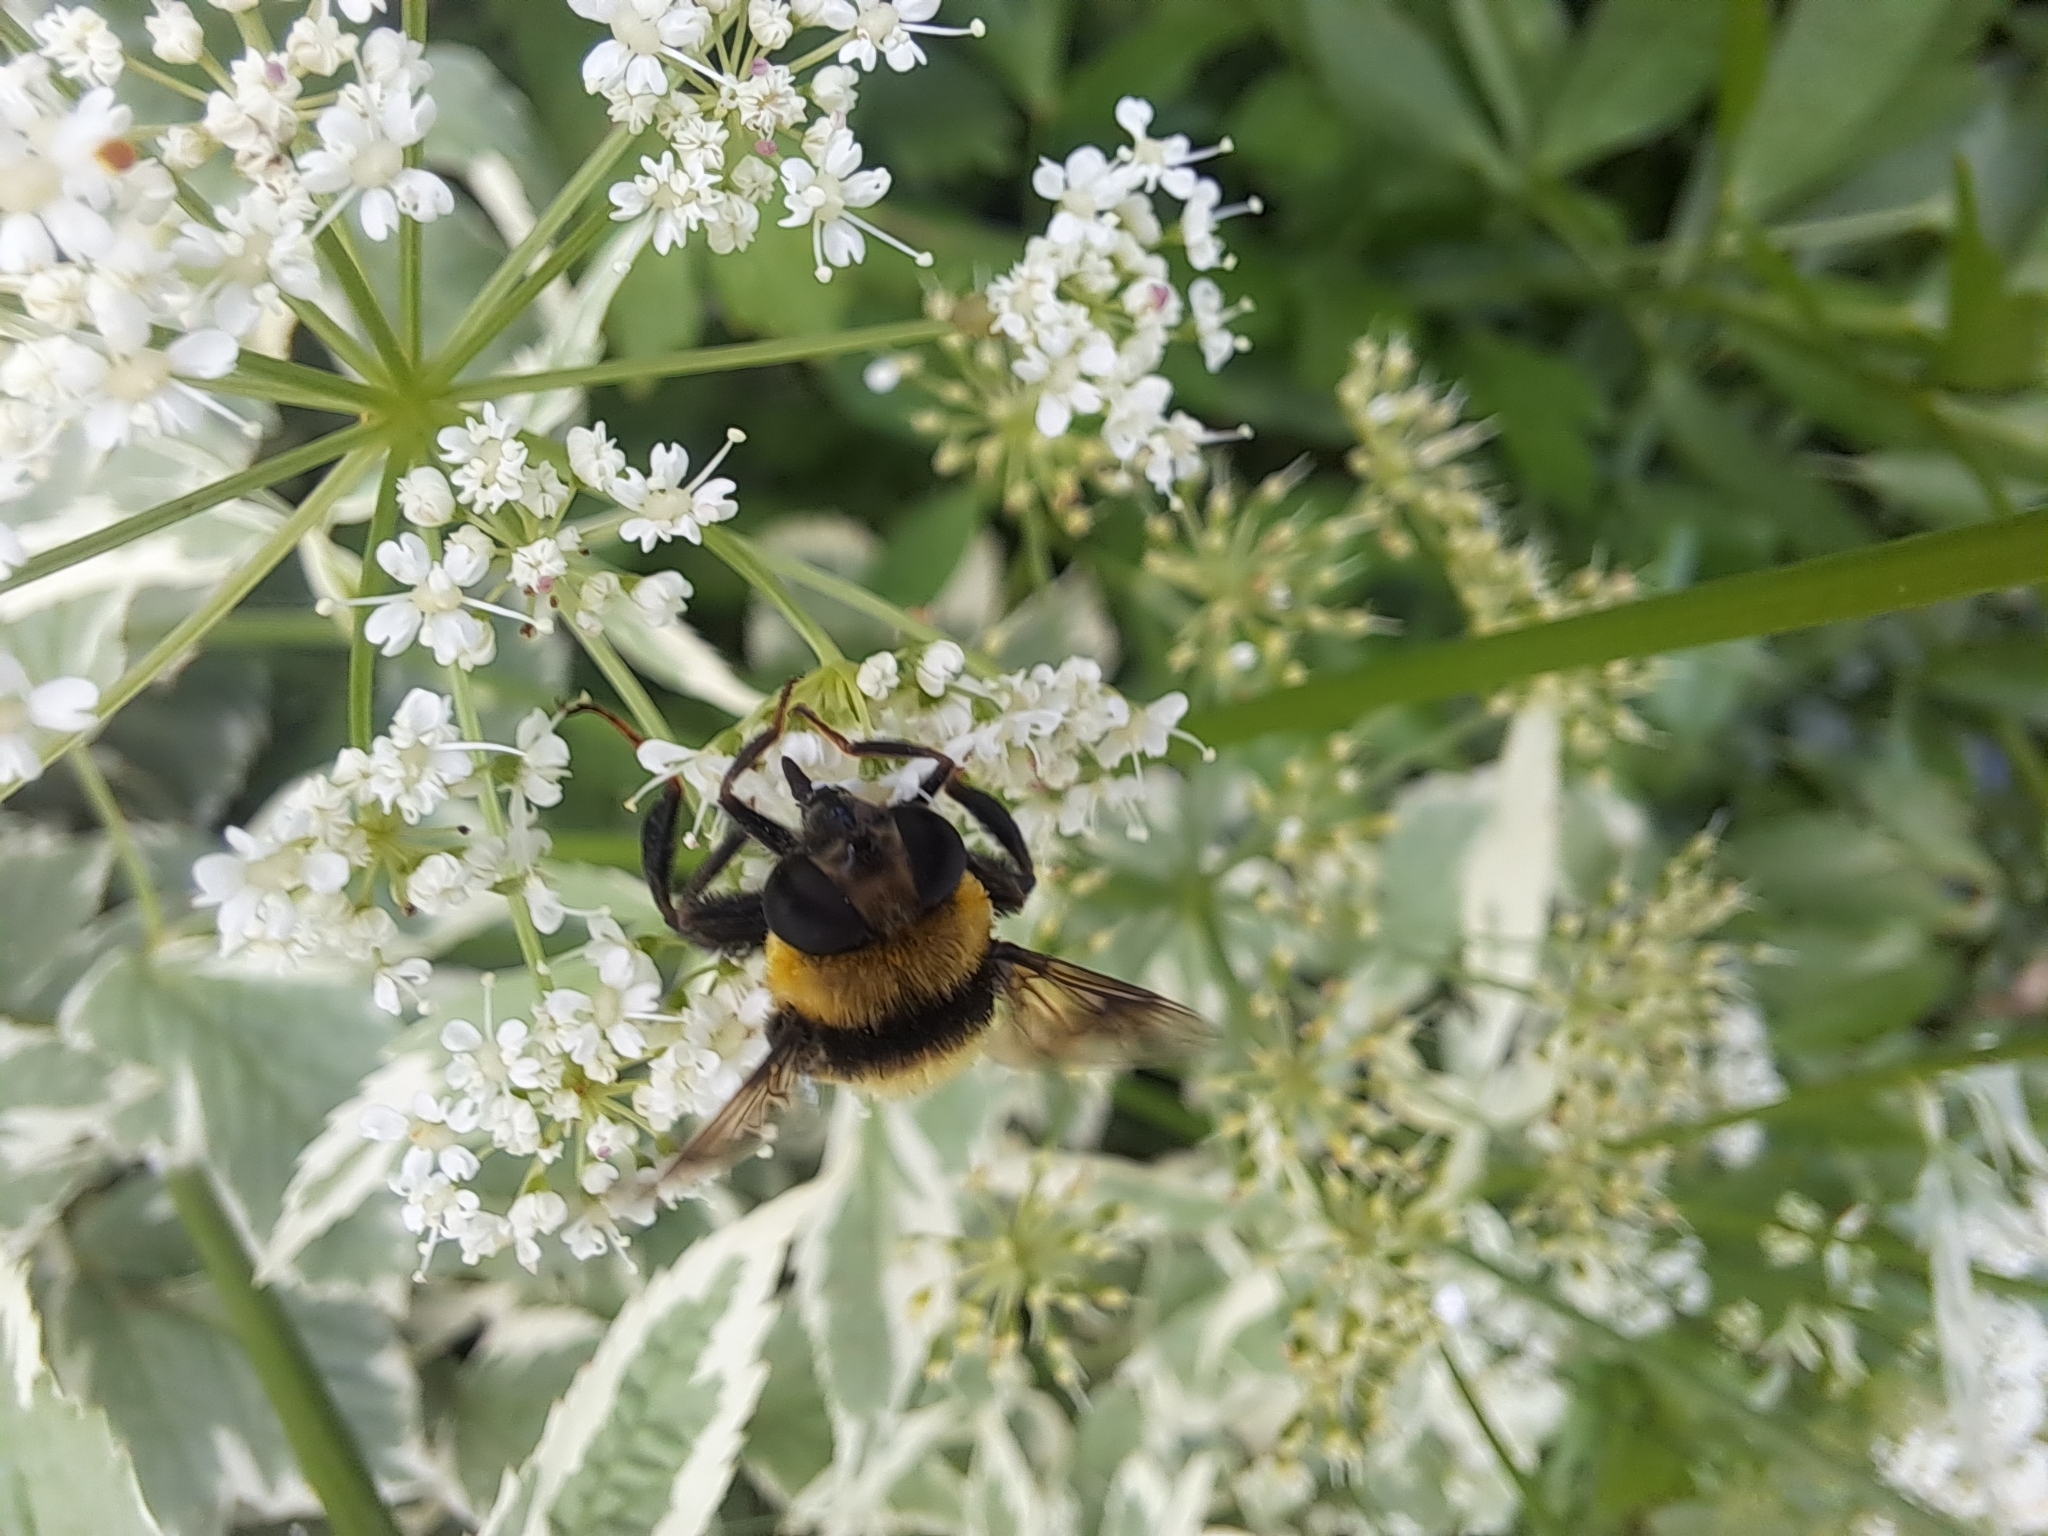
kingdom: Animalia
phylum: Arthropoda
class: Insecta
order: Diptera
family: Syrphidae
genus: Eristalis
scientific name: Eristalis flavipes
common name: Orange-legged drone fly
